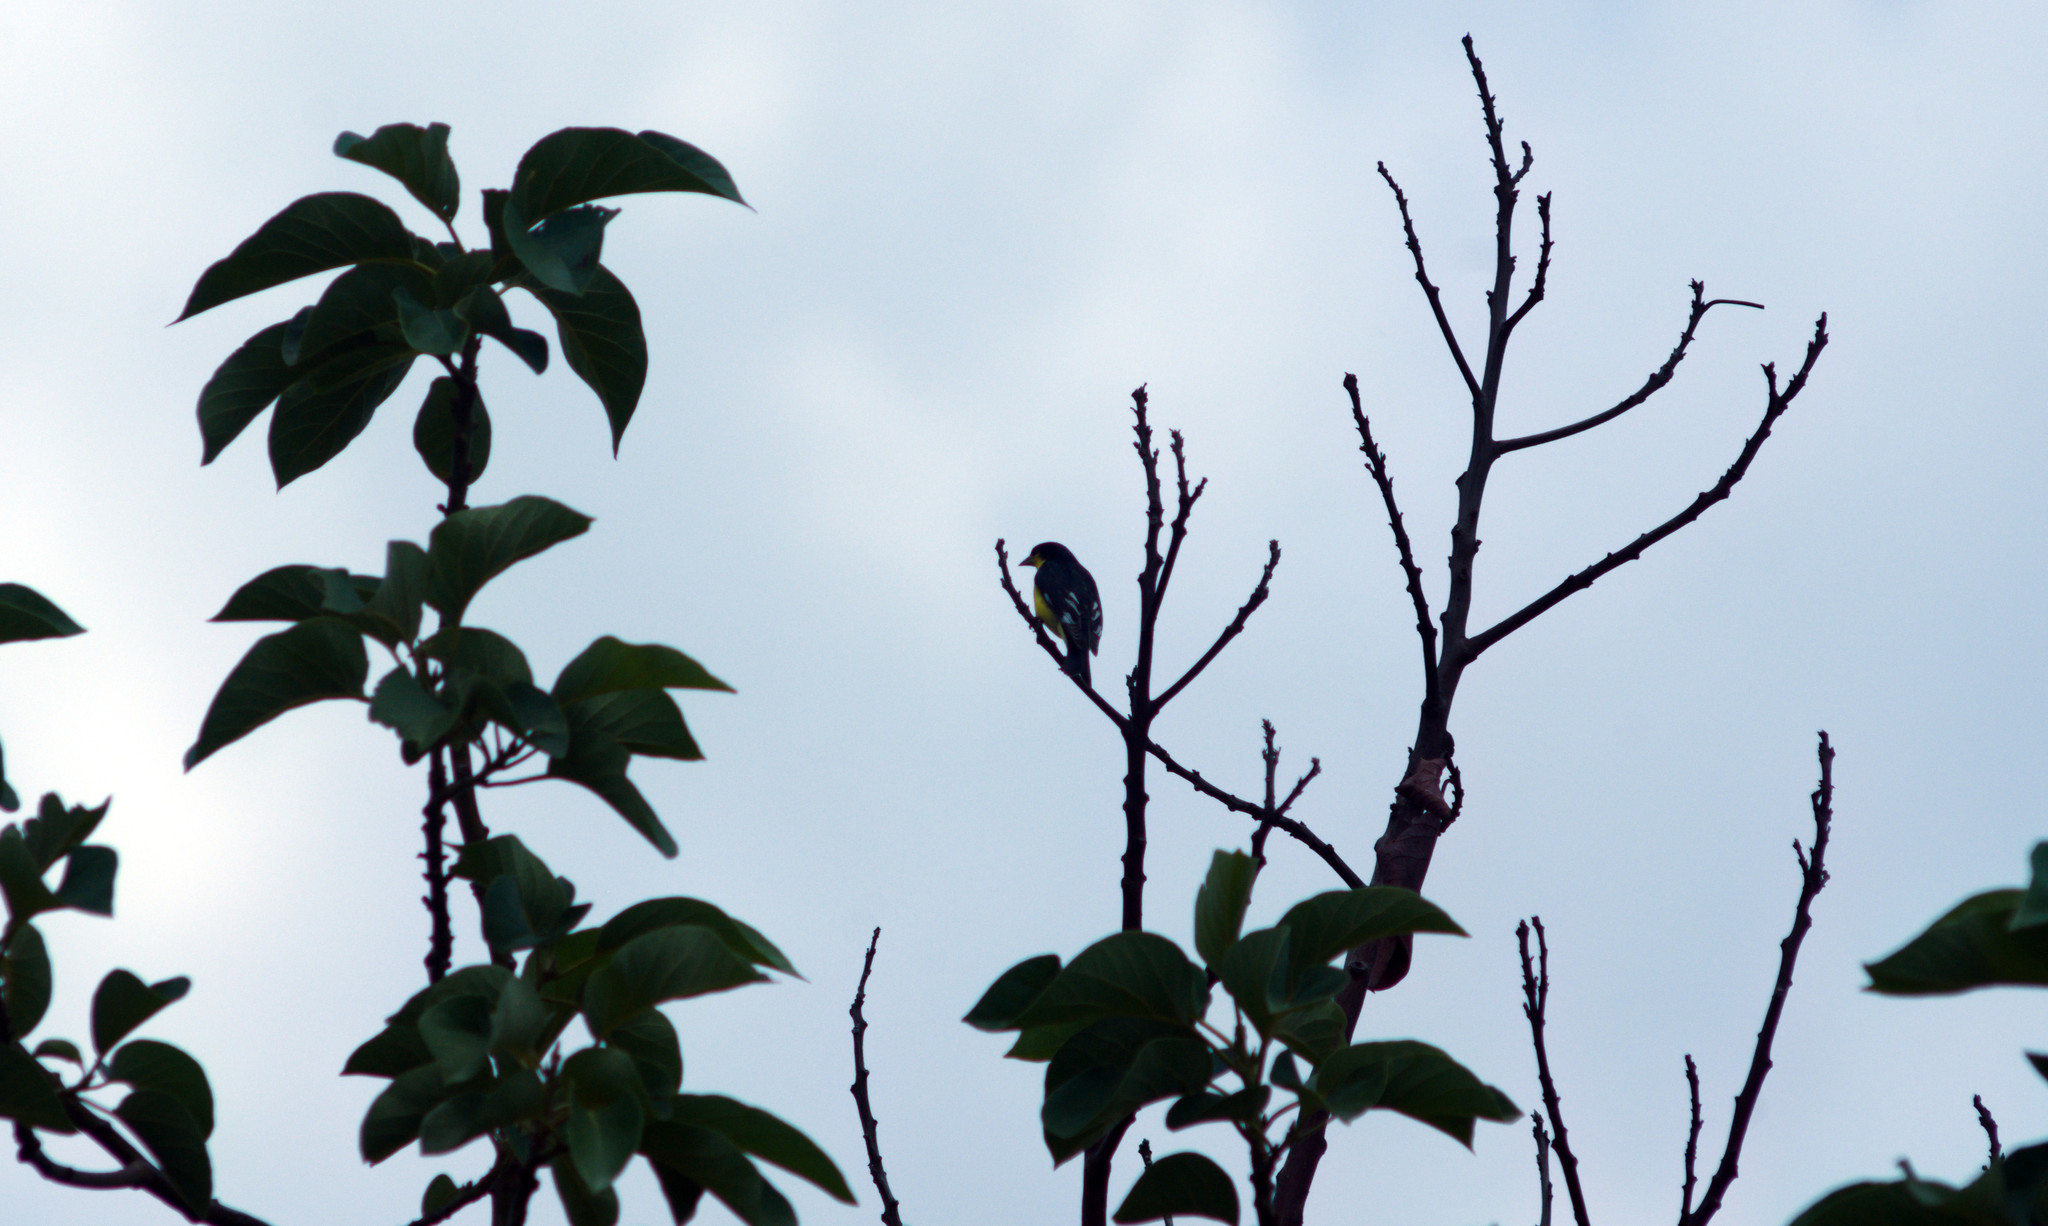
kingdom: Animalia
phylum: Chordata
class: Aves
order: Passeriformes
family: Fringillidae
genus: Spinus
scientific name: Spinus psaltria
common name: Lesser goldfinch
